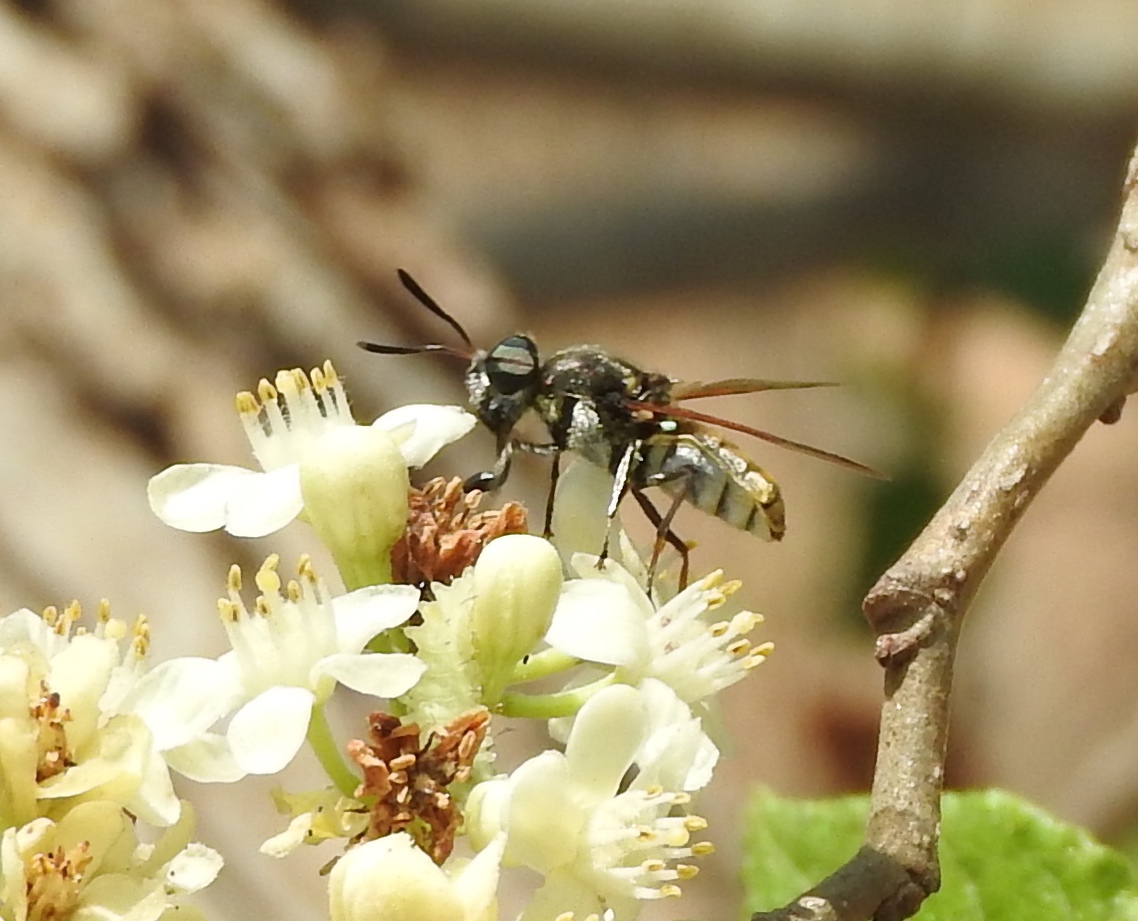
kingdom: Animalia
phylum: Arthropoda
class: Insecta
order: Diptera
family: Stratiomyidae
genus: Hoplitimyia
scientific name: Hoplitimyia
